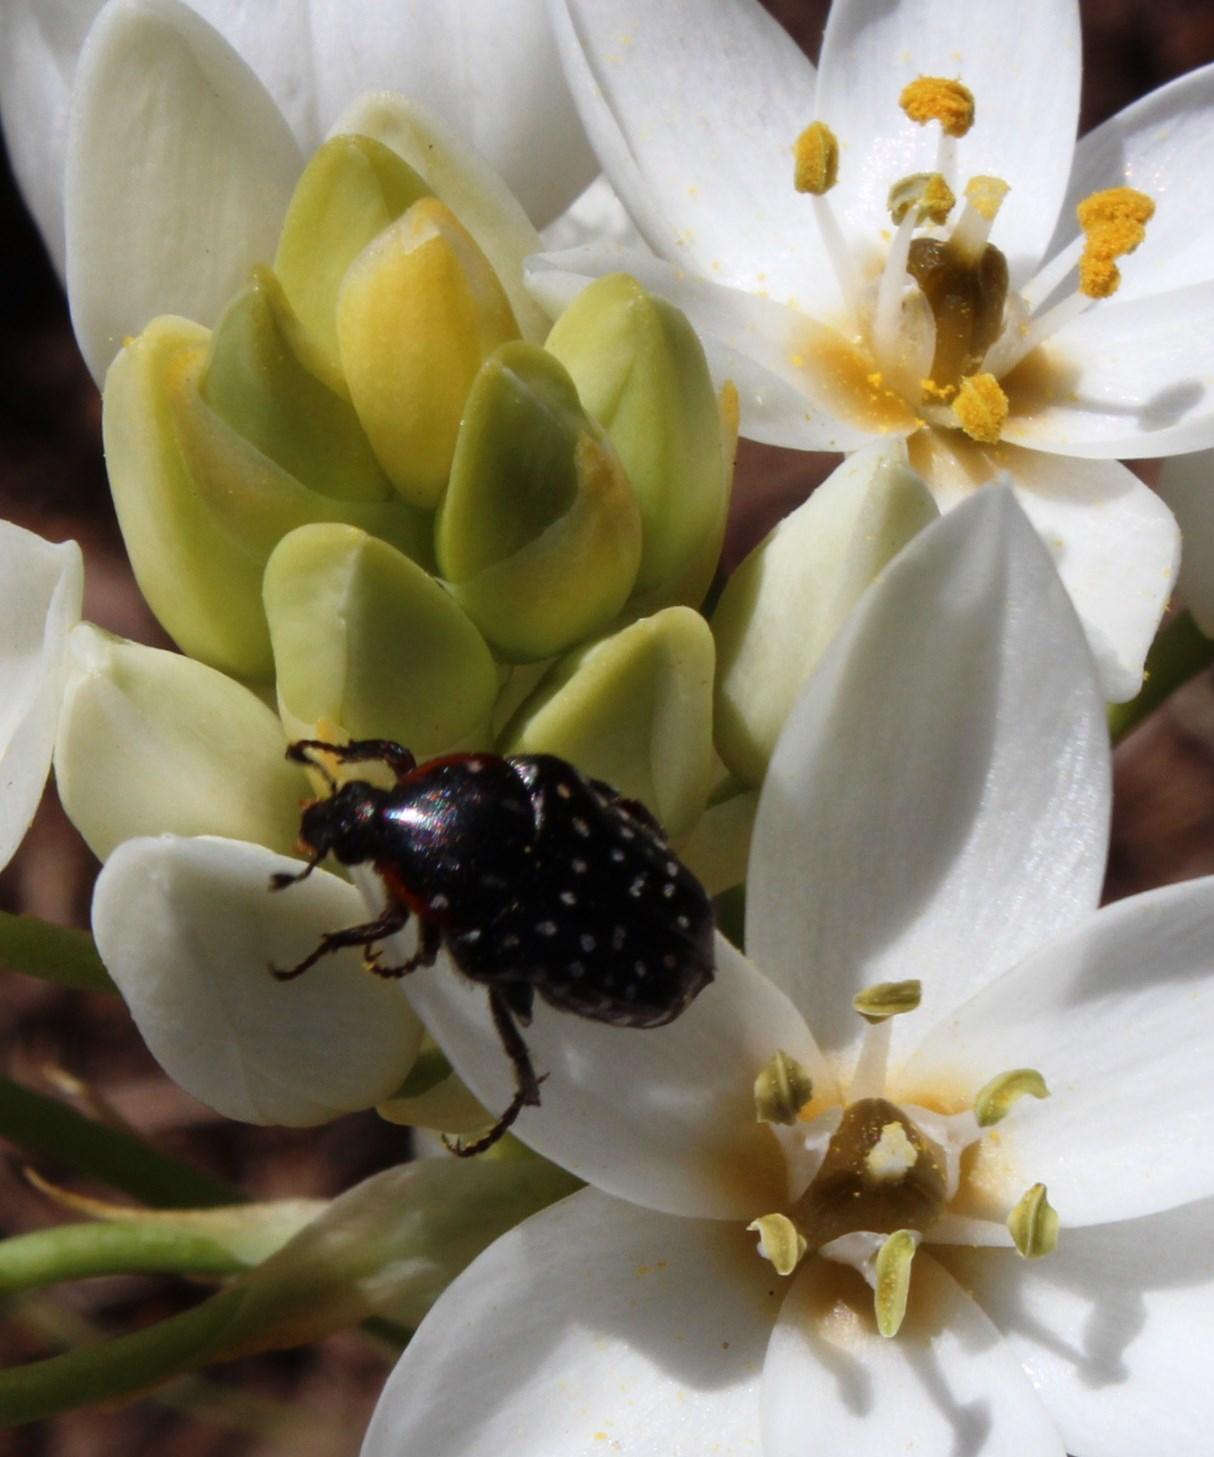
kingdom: Animalia
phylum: Arthropoda
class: Insecta
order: Coleoptera
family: Scarabaeidae
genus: Oxythyrea
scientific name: Oxythyrea
